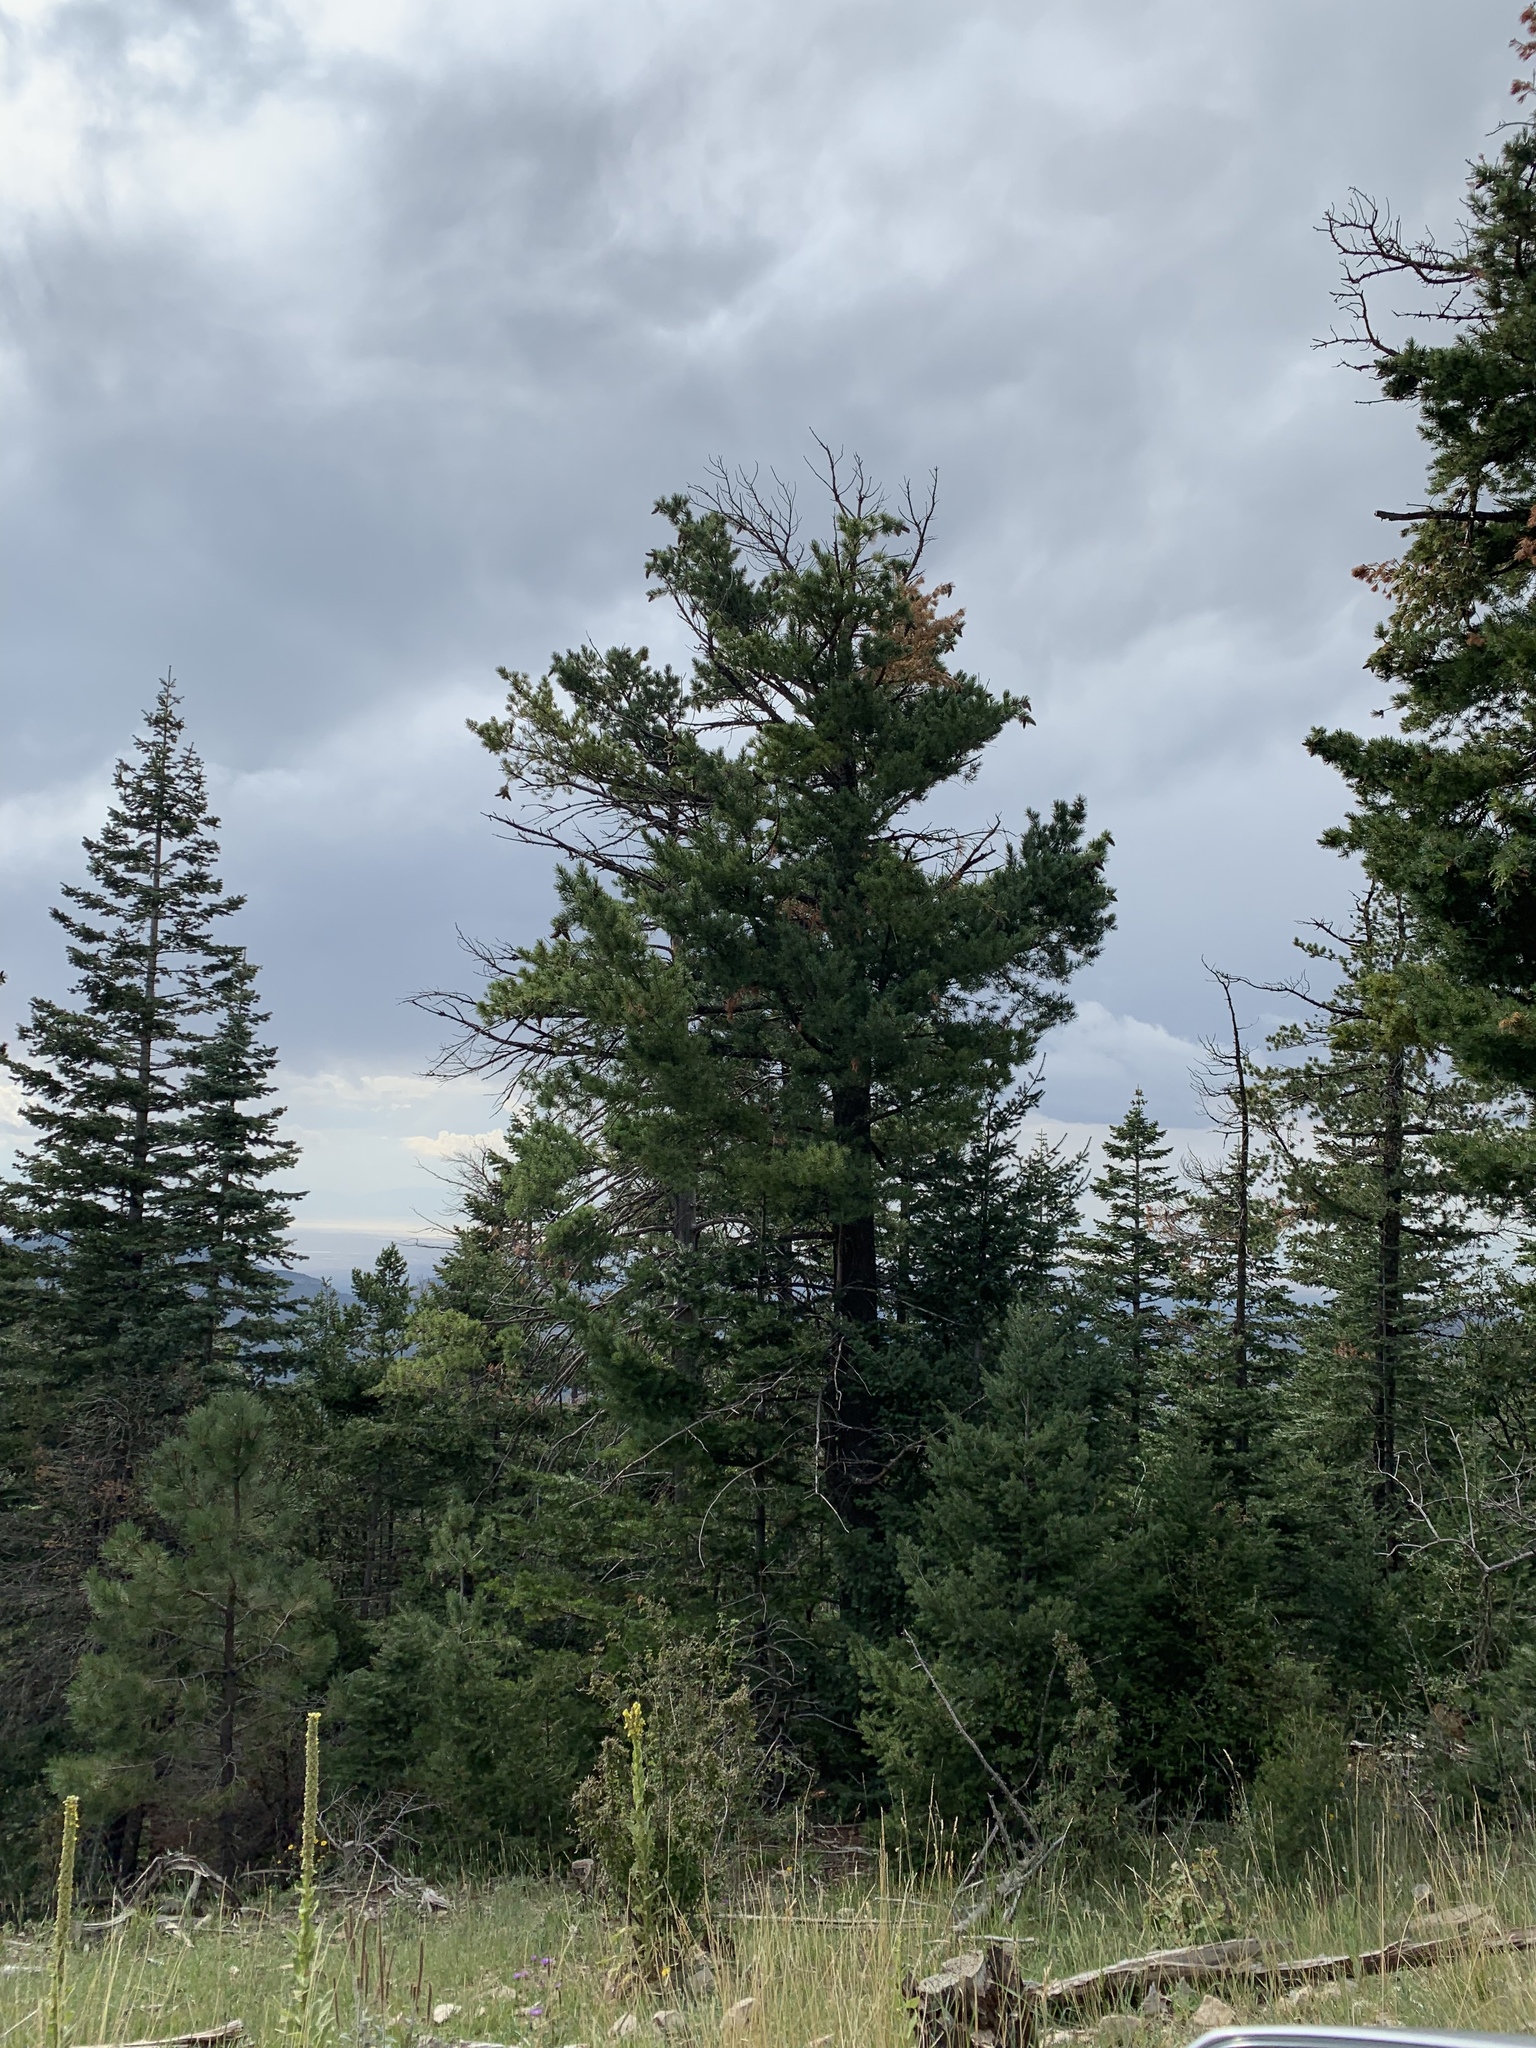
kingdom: Plantae
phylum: Tracheophyta
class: Pinopsida
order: Pinales
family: Pinaceae
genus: Pinus
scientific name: Pinus strobiformis
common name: Southwestern white pine
